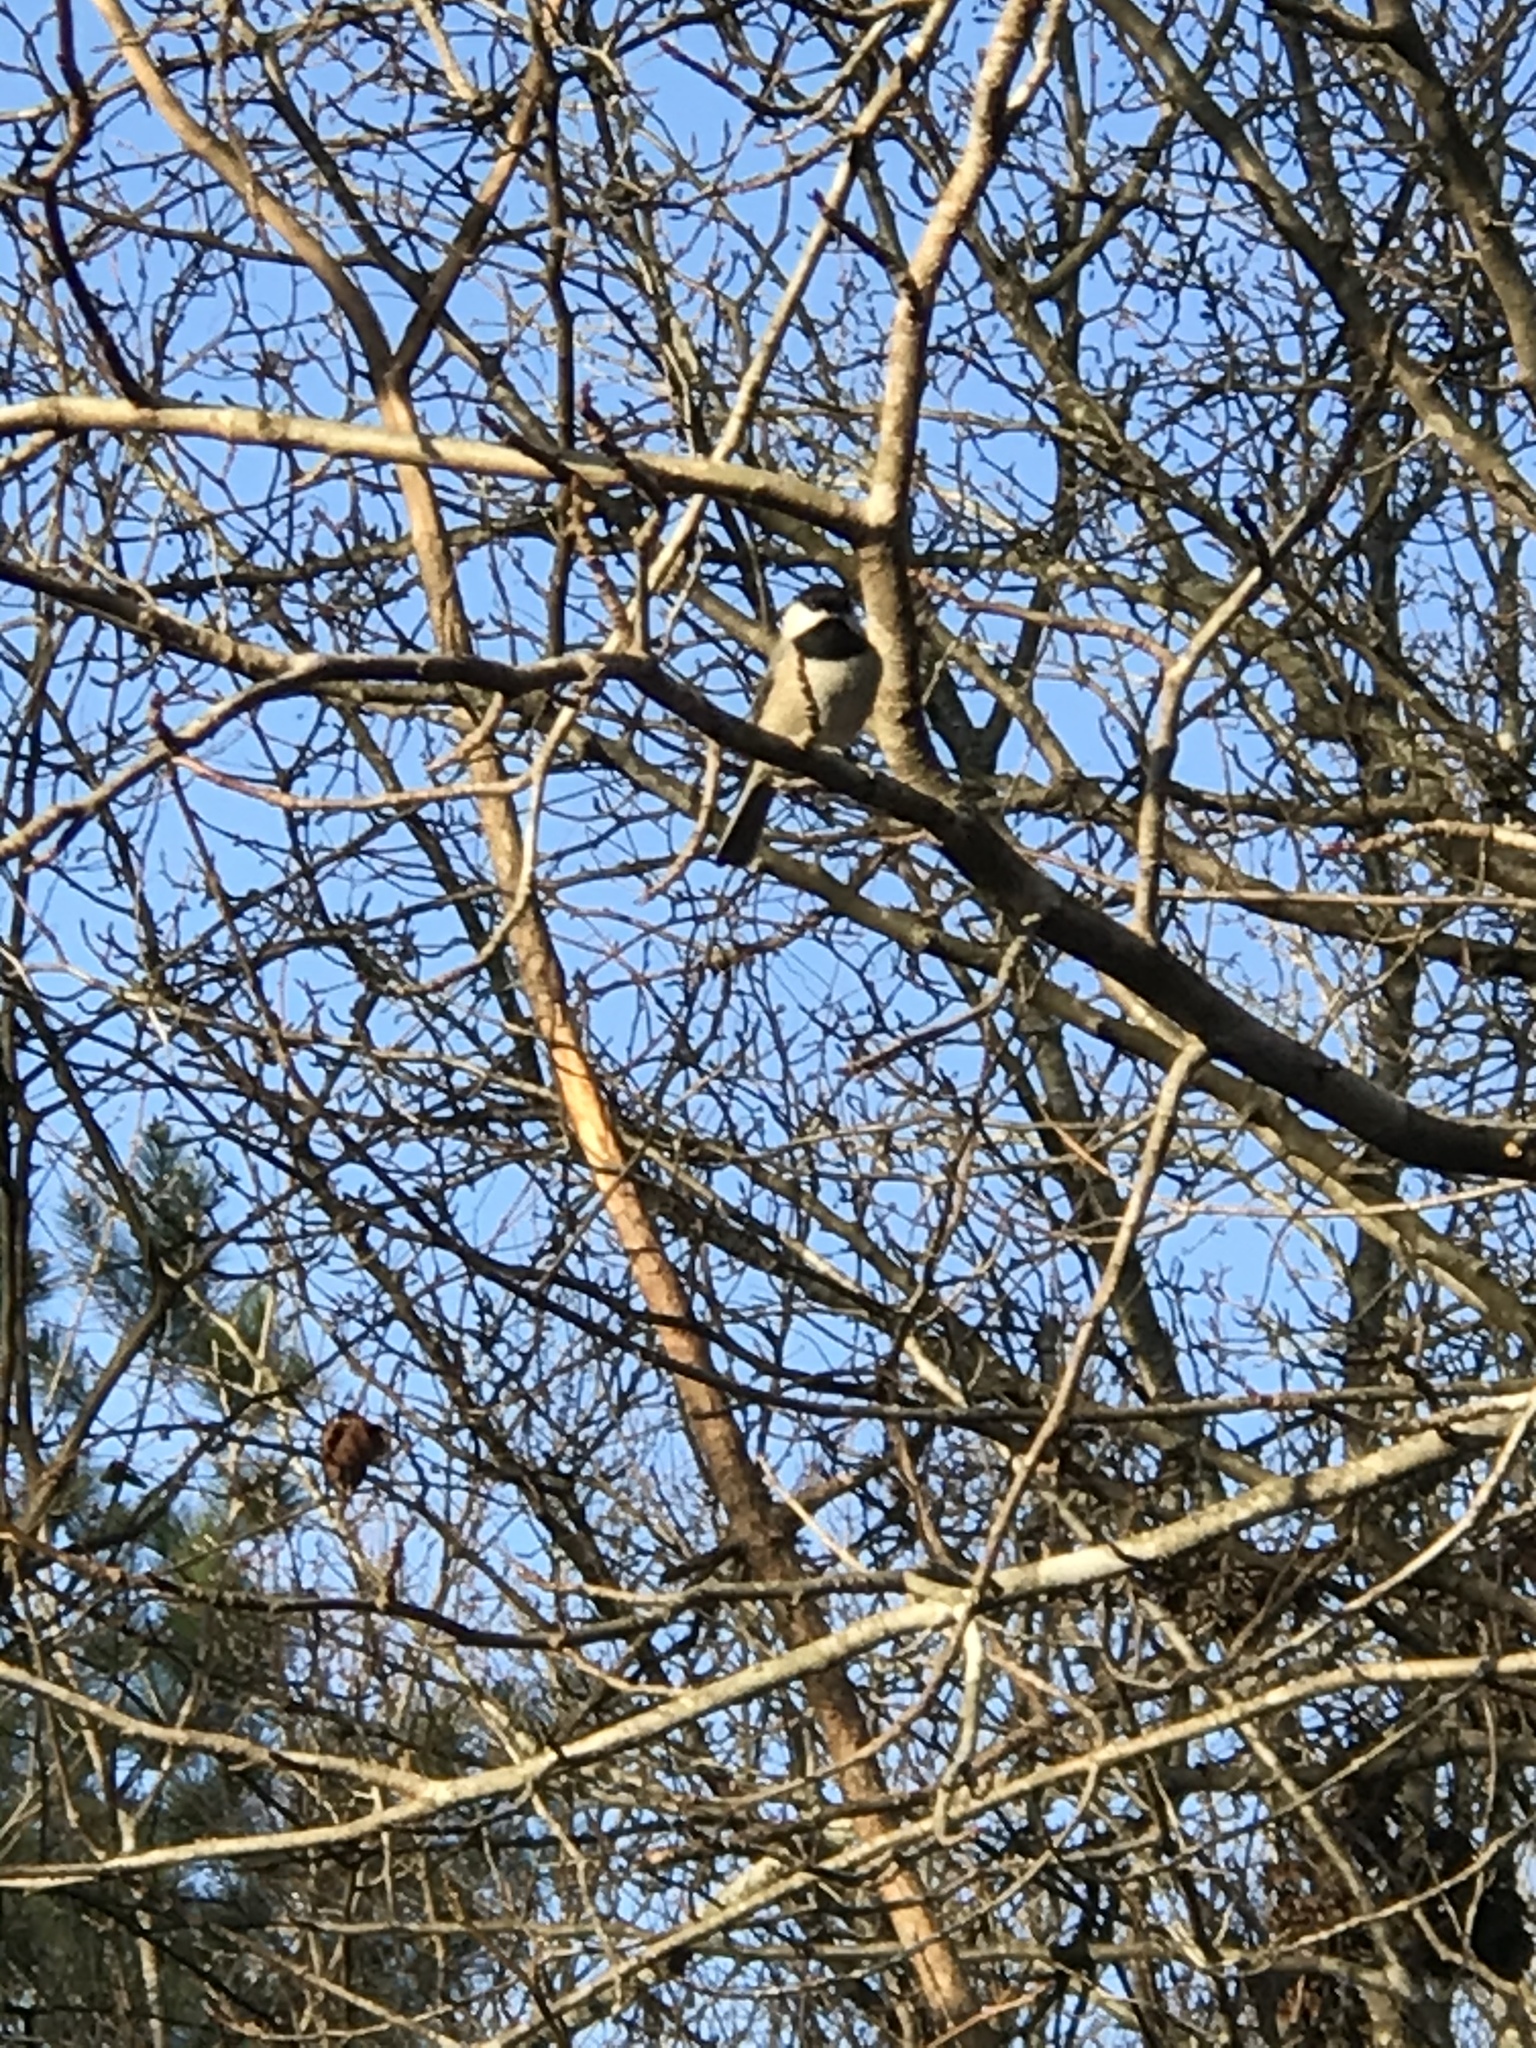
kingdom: Animalia
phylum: Chordata
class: Aves
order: Passeriformes
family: Paridae
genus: Poecile
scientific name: Poecile carolinensis
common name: Carolina chickadee
